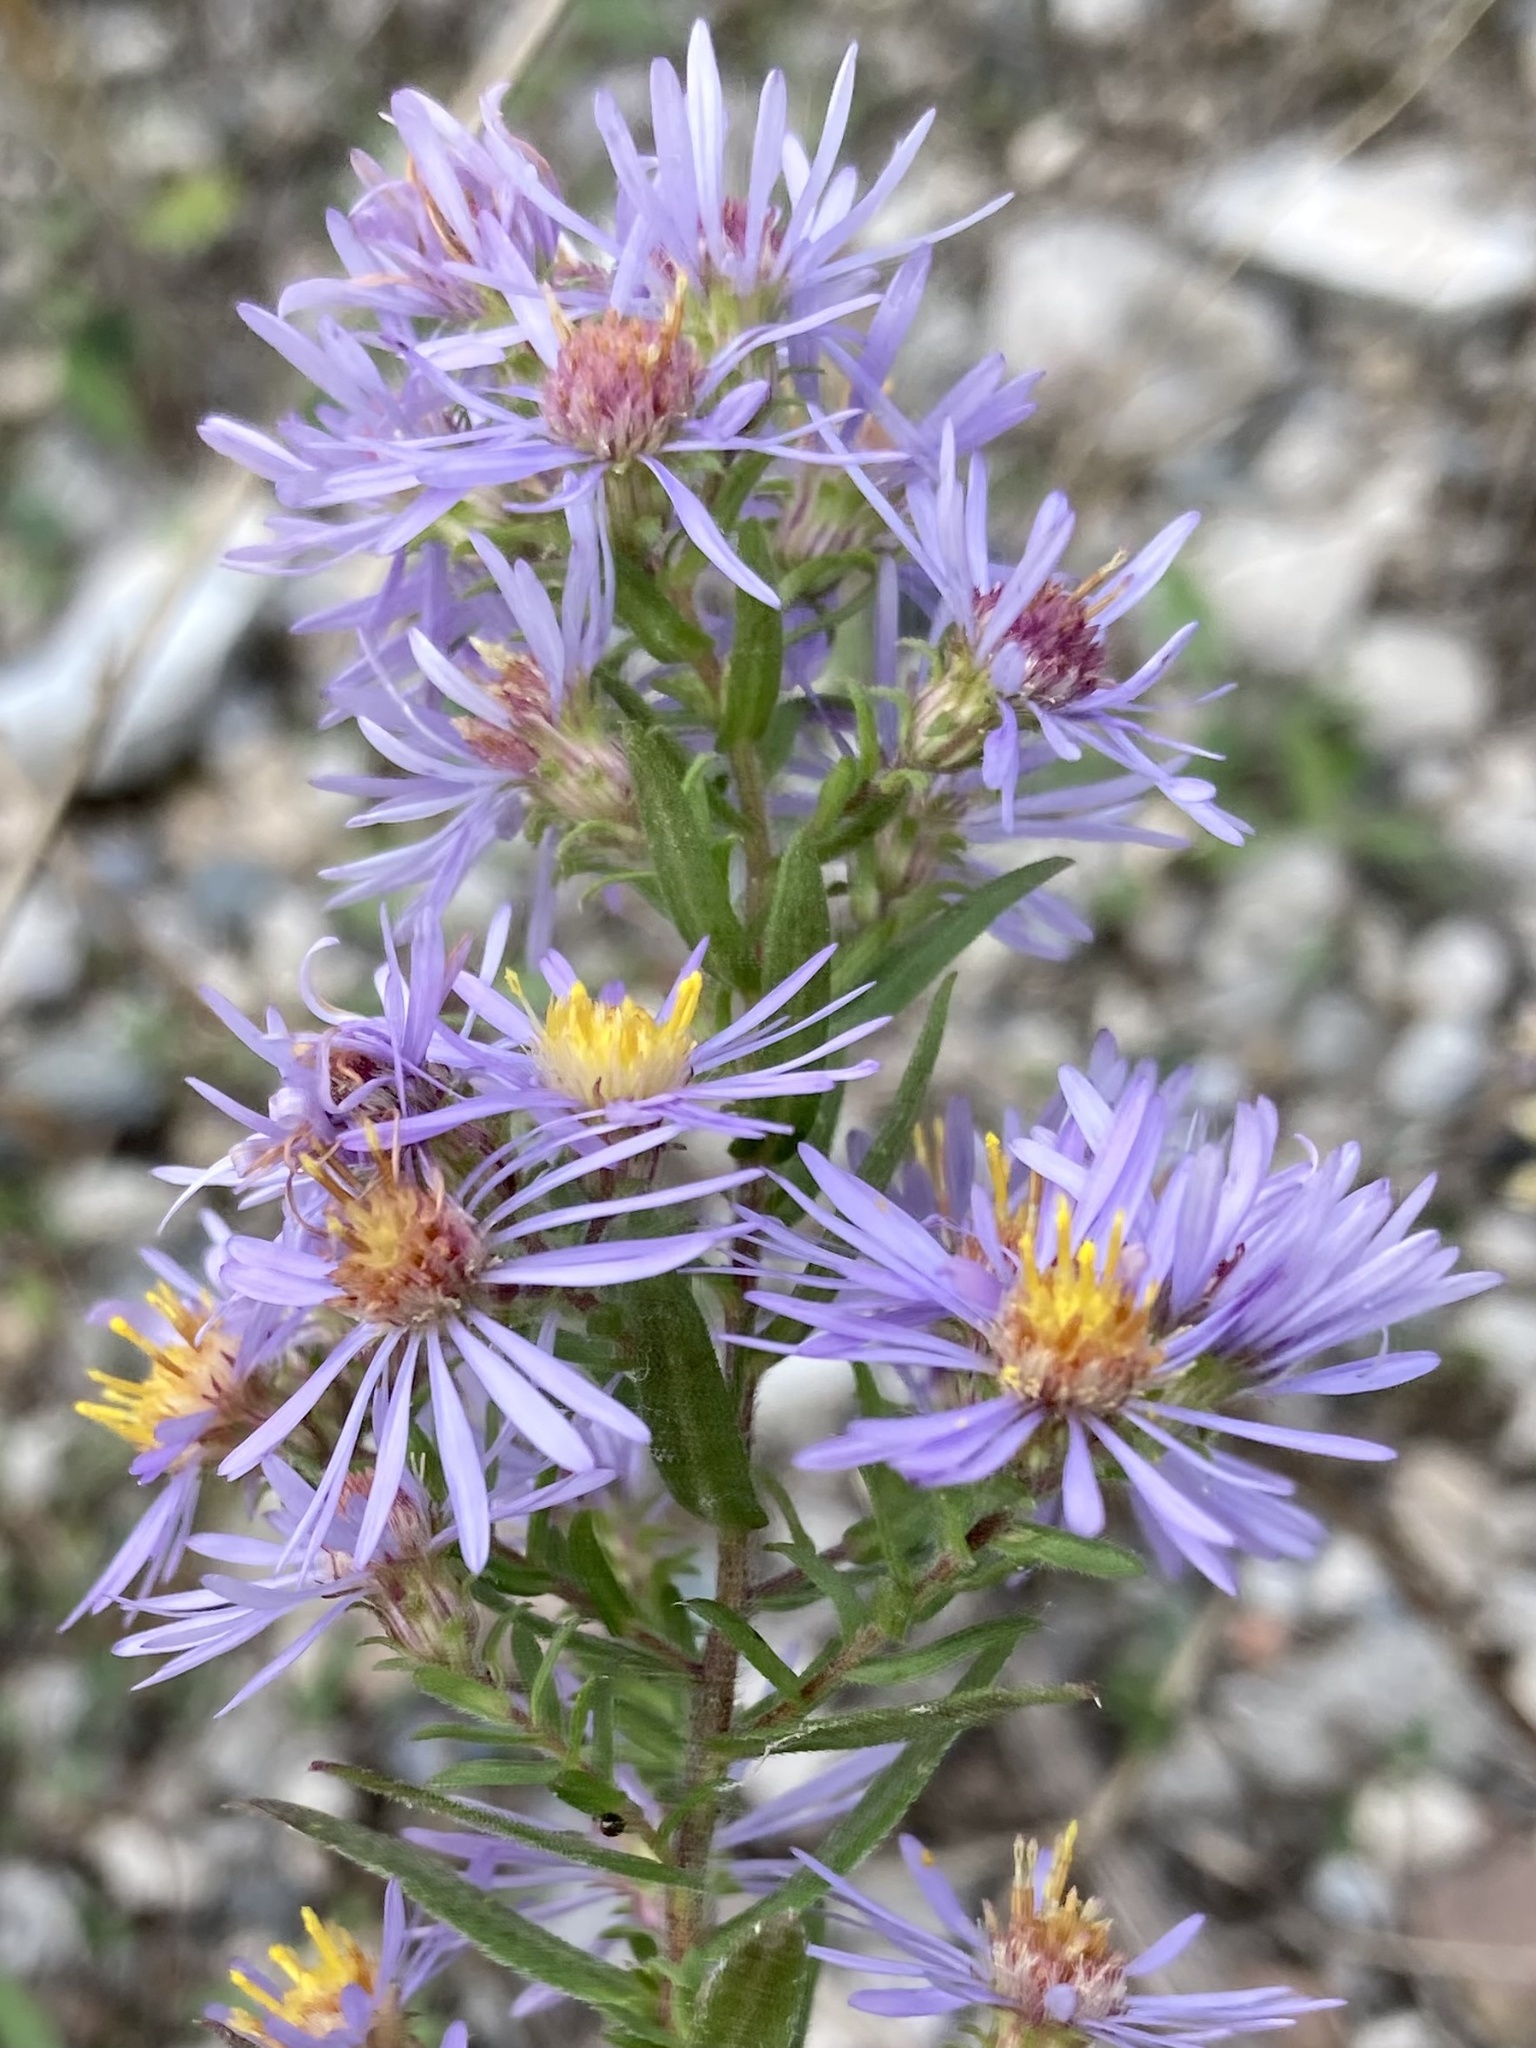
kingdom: Plantae
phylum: Tracheophyta
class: Magnoliopsida
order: Asterales
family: Asteraceae
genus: Symphyotrichum
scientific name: Symphyotrichum amethystinum
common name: Amethyst aster
